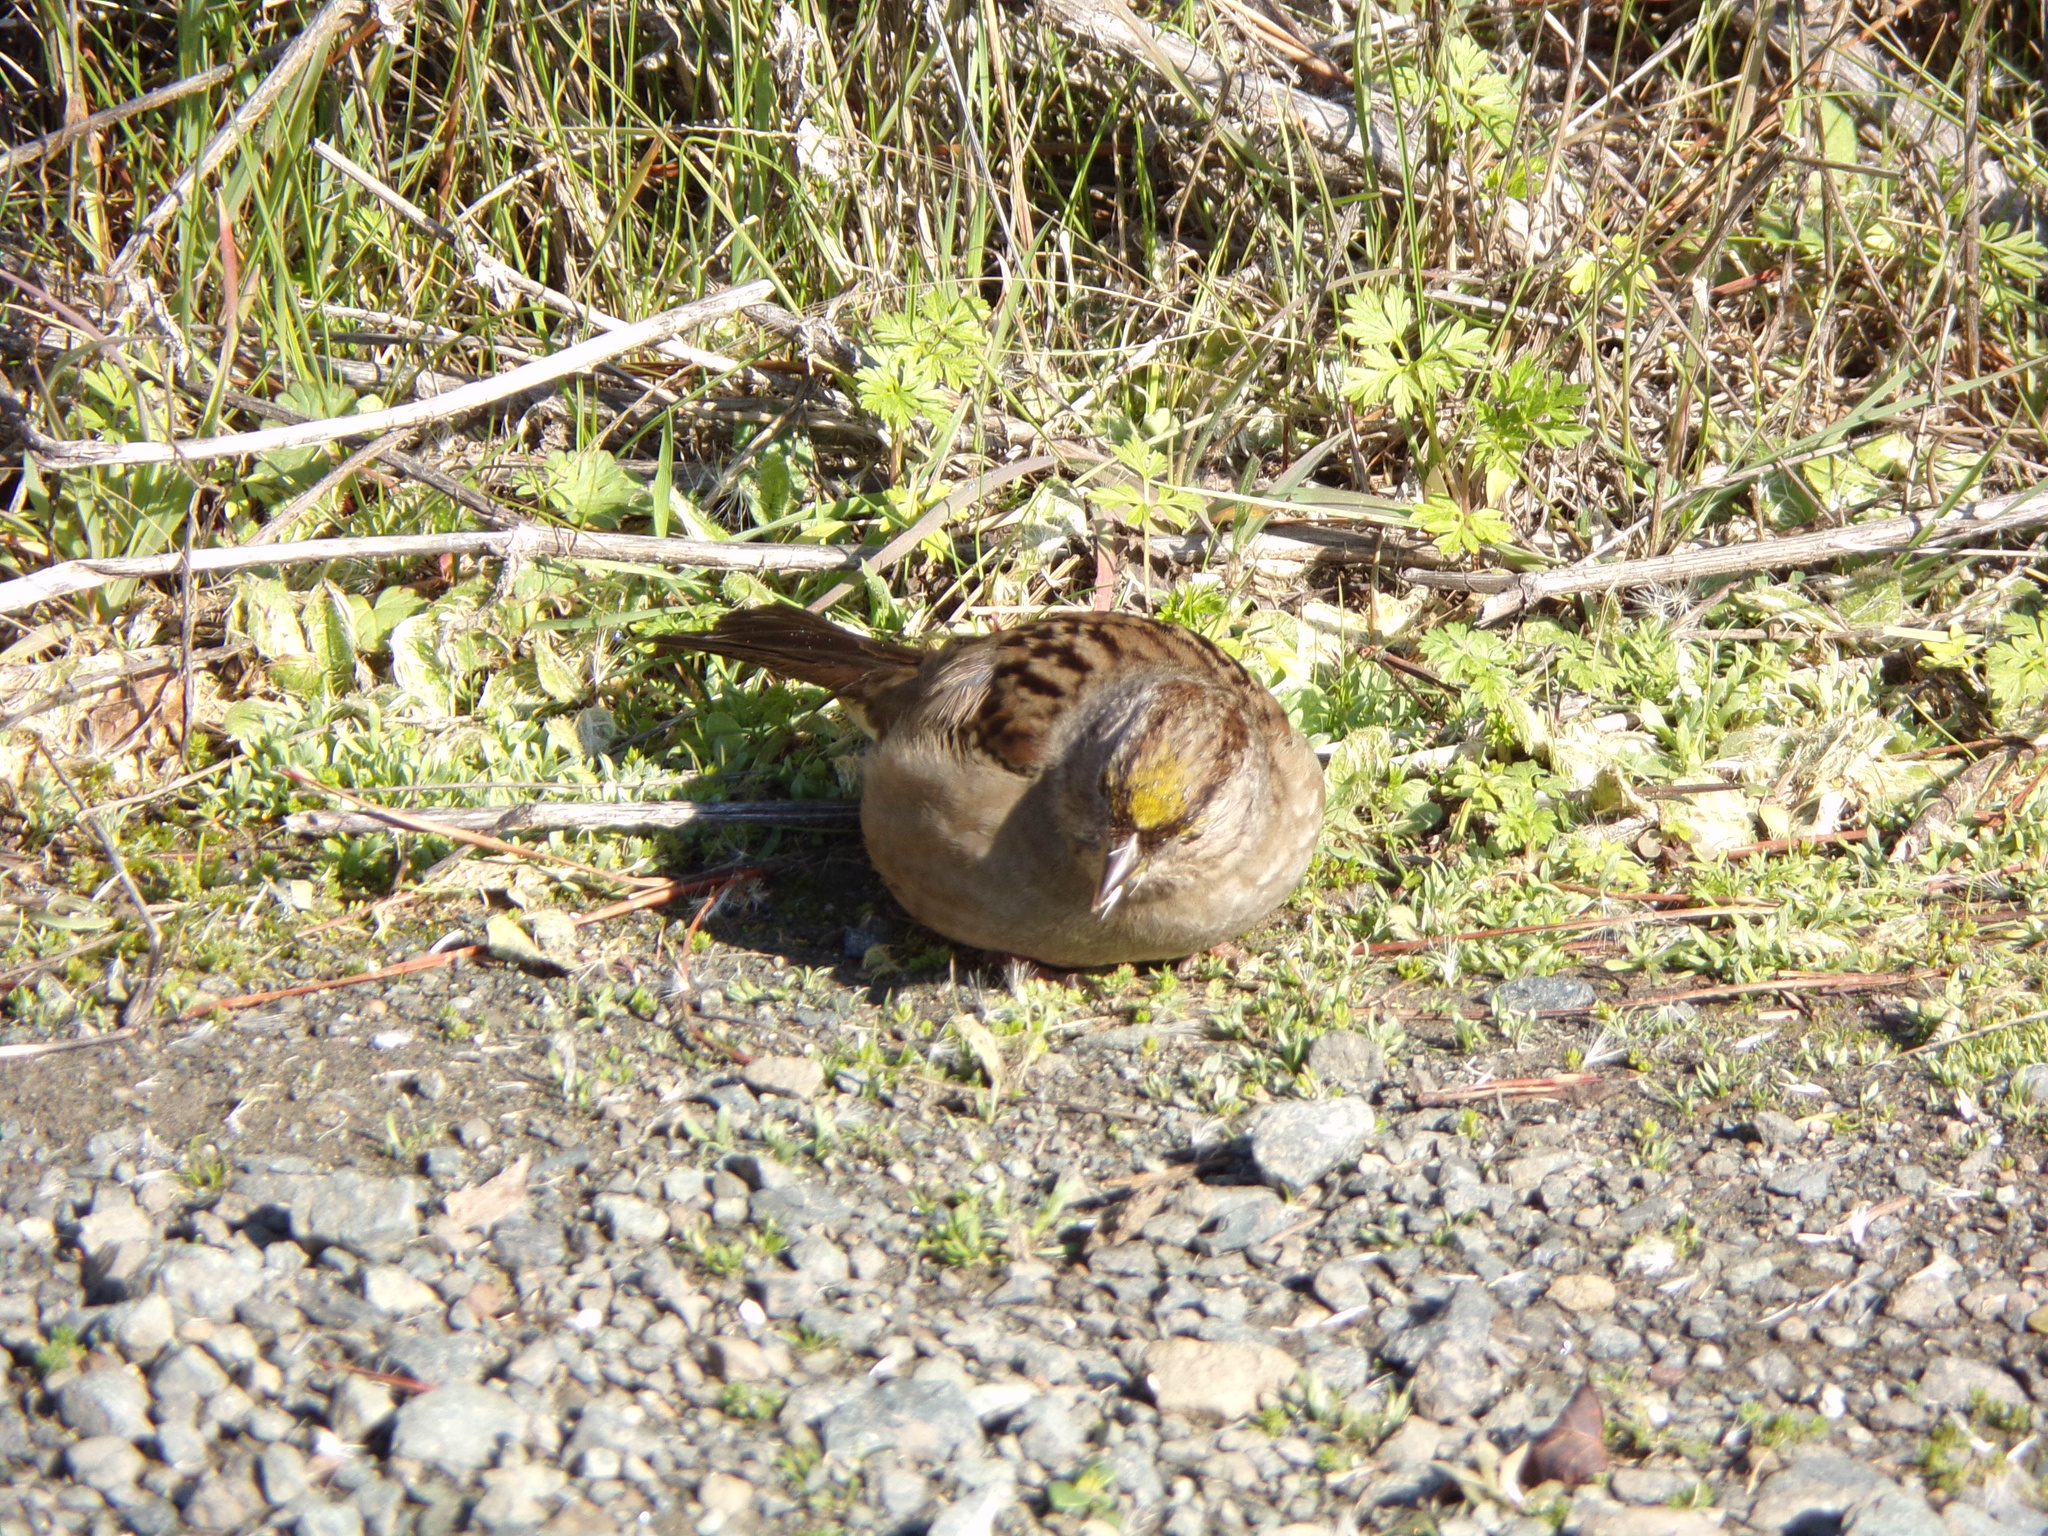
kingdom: Animalia
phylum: Chordata
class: Aves
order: Passeriformes
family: Passerellidae
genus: Zonotrichia
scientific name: Zonotrichia atricapilla
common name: Golden-crowned sparrow
